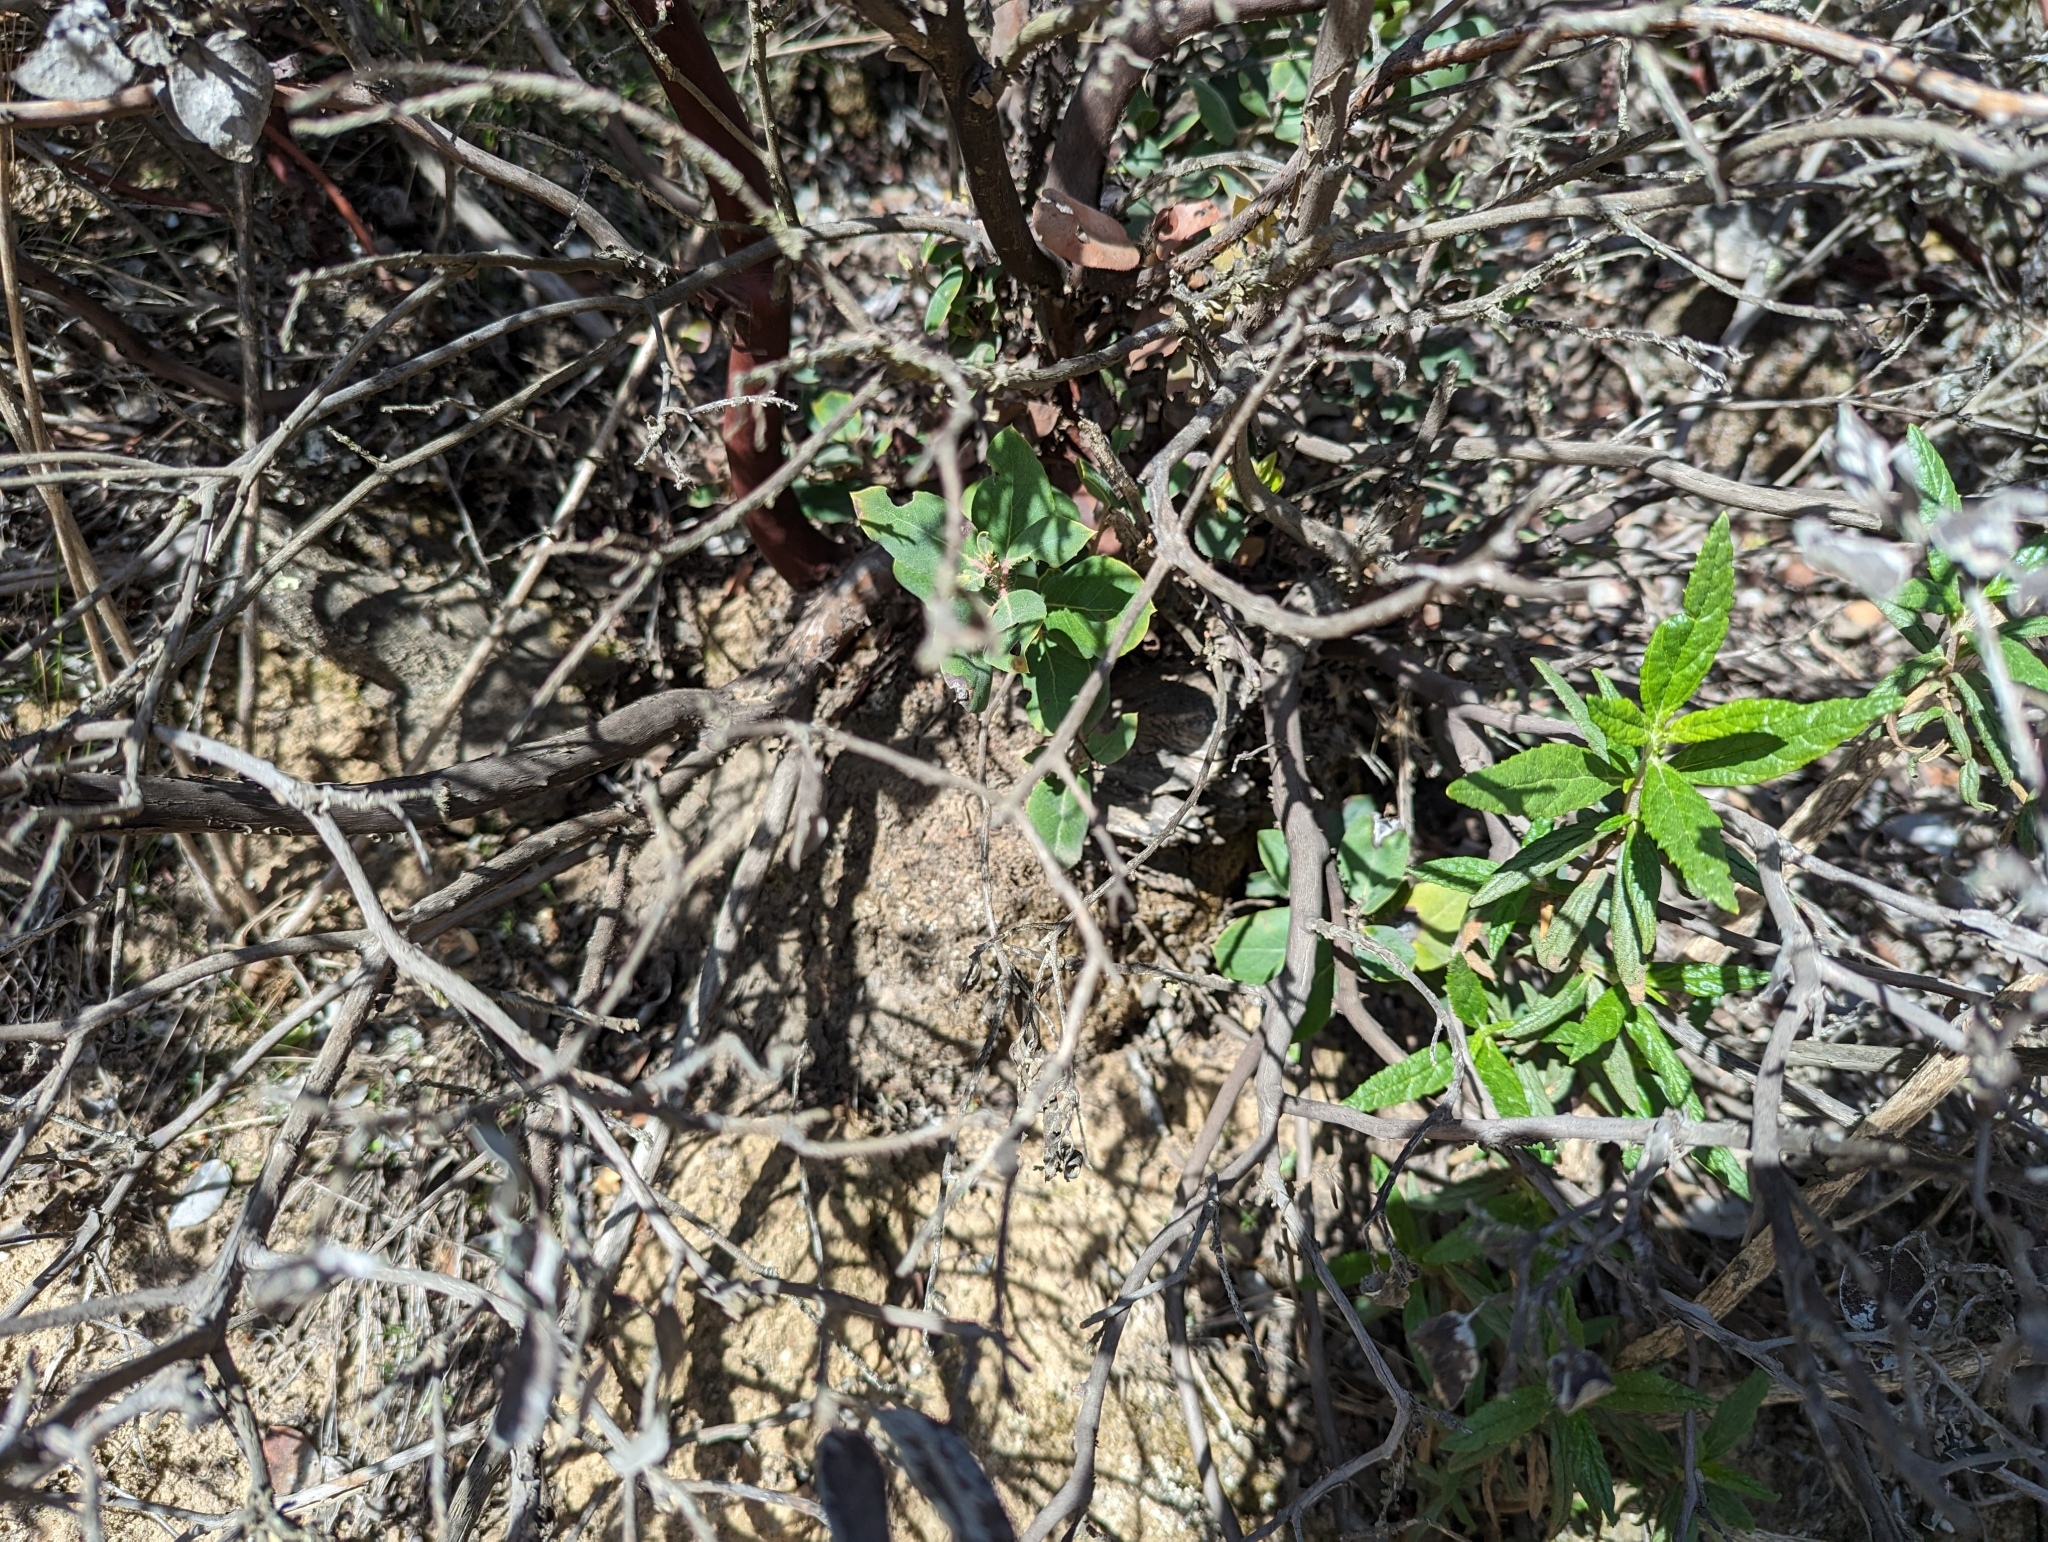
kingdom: Plantae
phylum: Tracheophyta
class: Magnoliopsida
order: Ericales
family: Ericaceae
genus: Arctostaphylos
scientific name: Arctostaphylos crustacea
